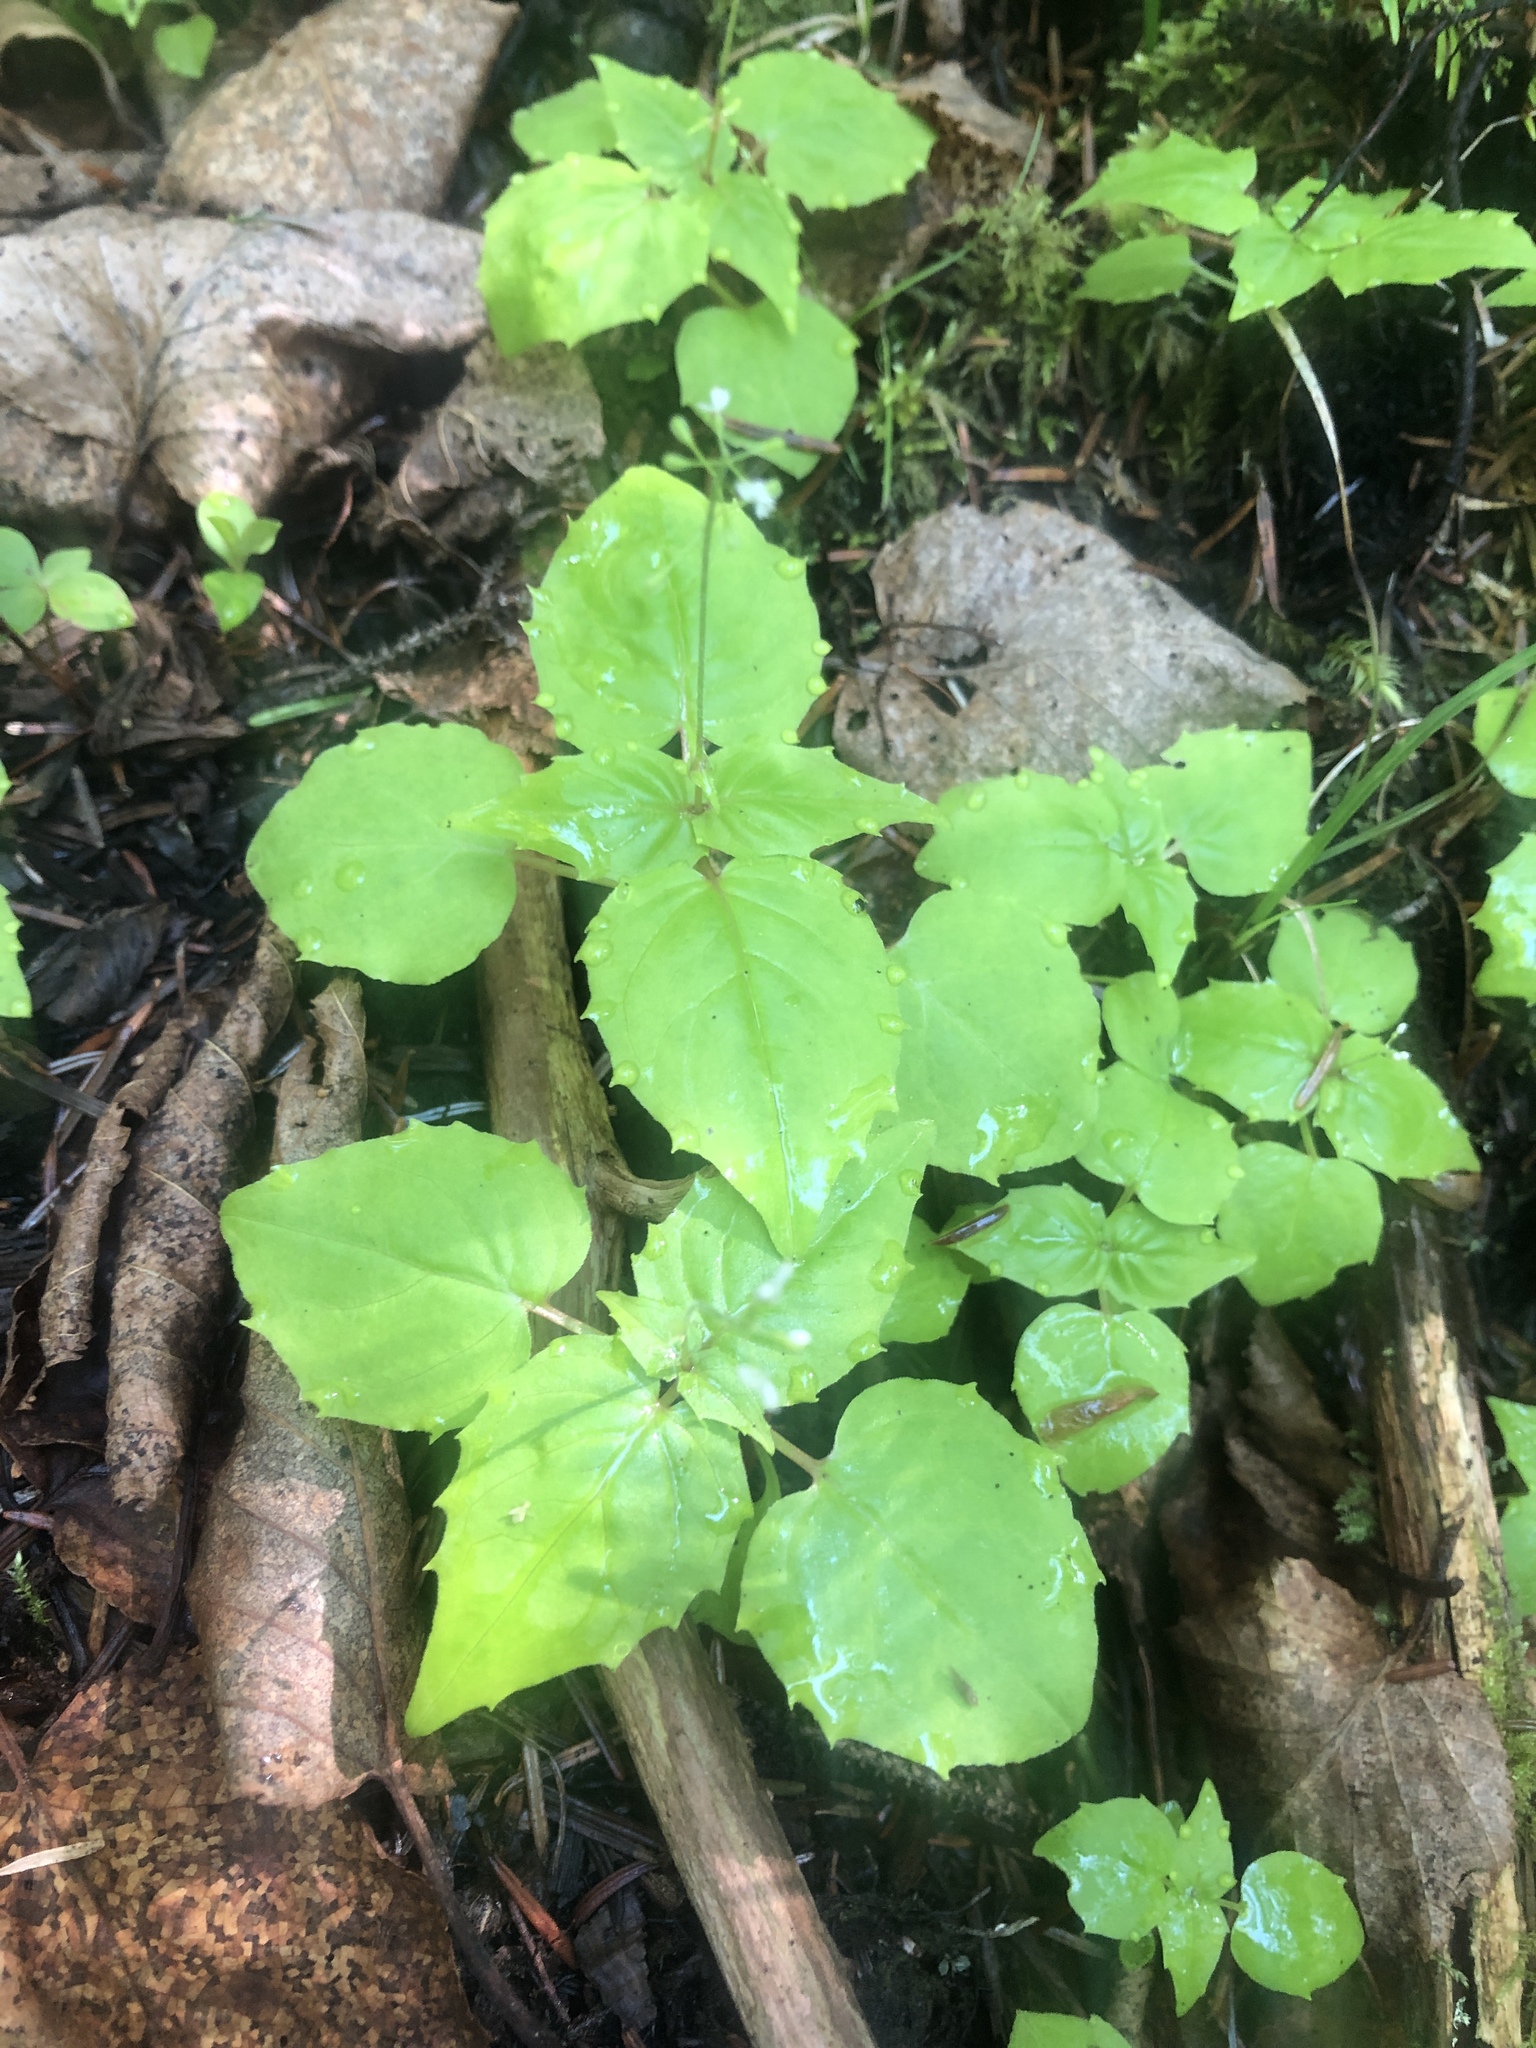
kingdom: Plantae
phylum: Tracheophyta
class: Magnoliopsida
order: Myrtales
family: Onagraceae
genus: Circaea
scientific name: Circaea alpina
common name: Alpine enchanter's-nightshade
